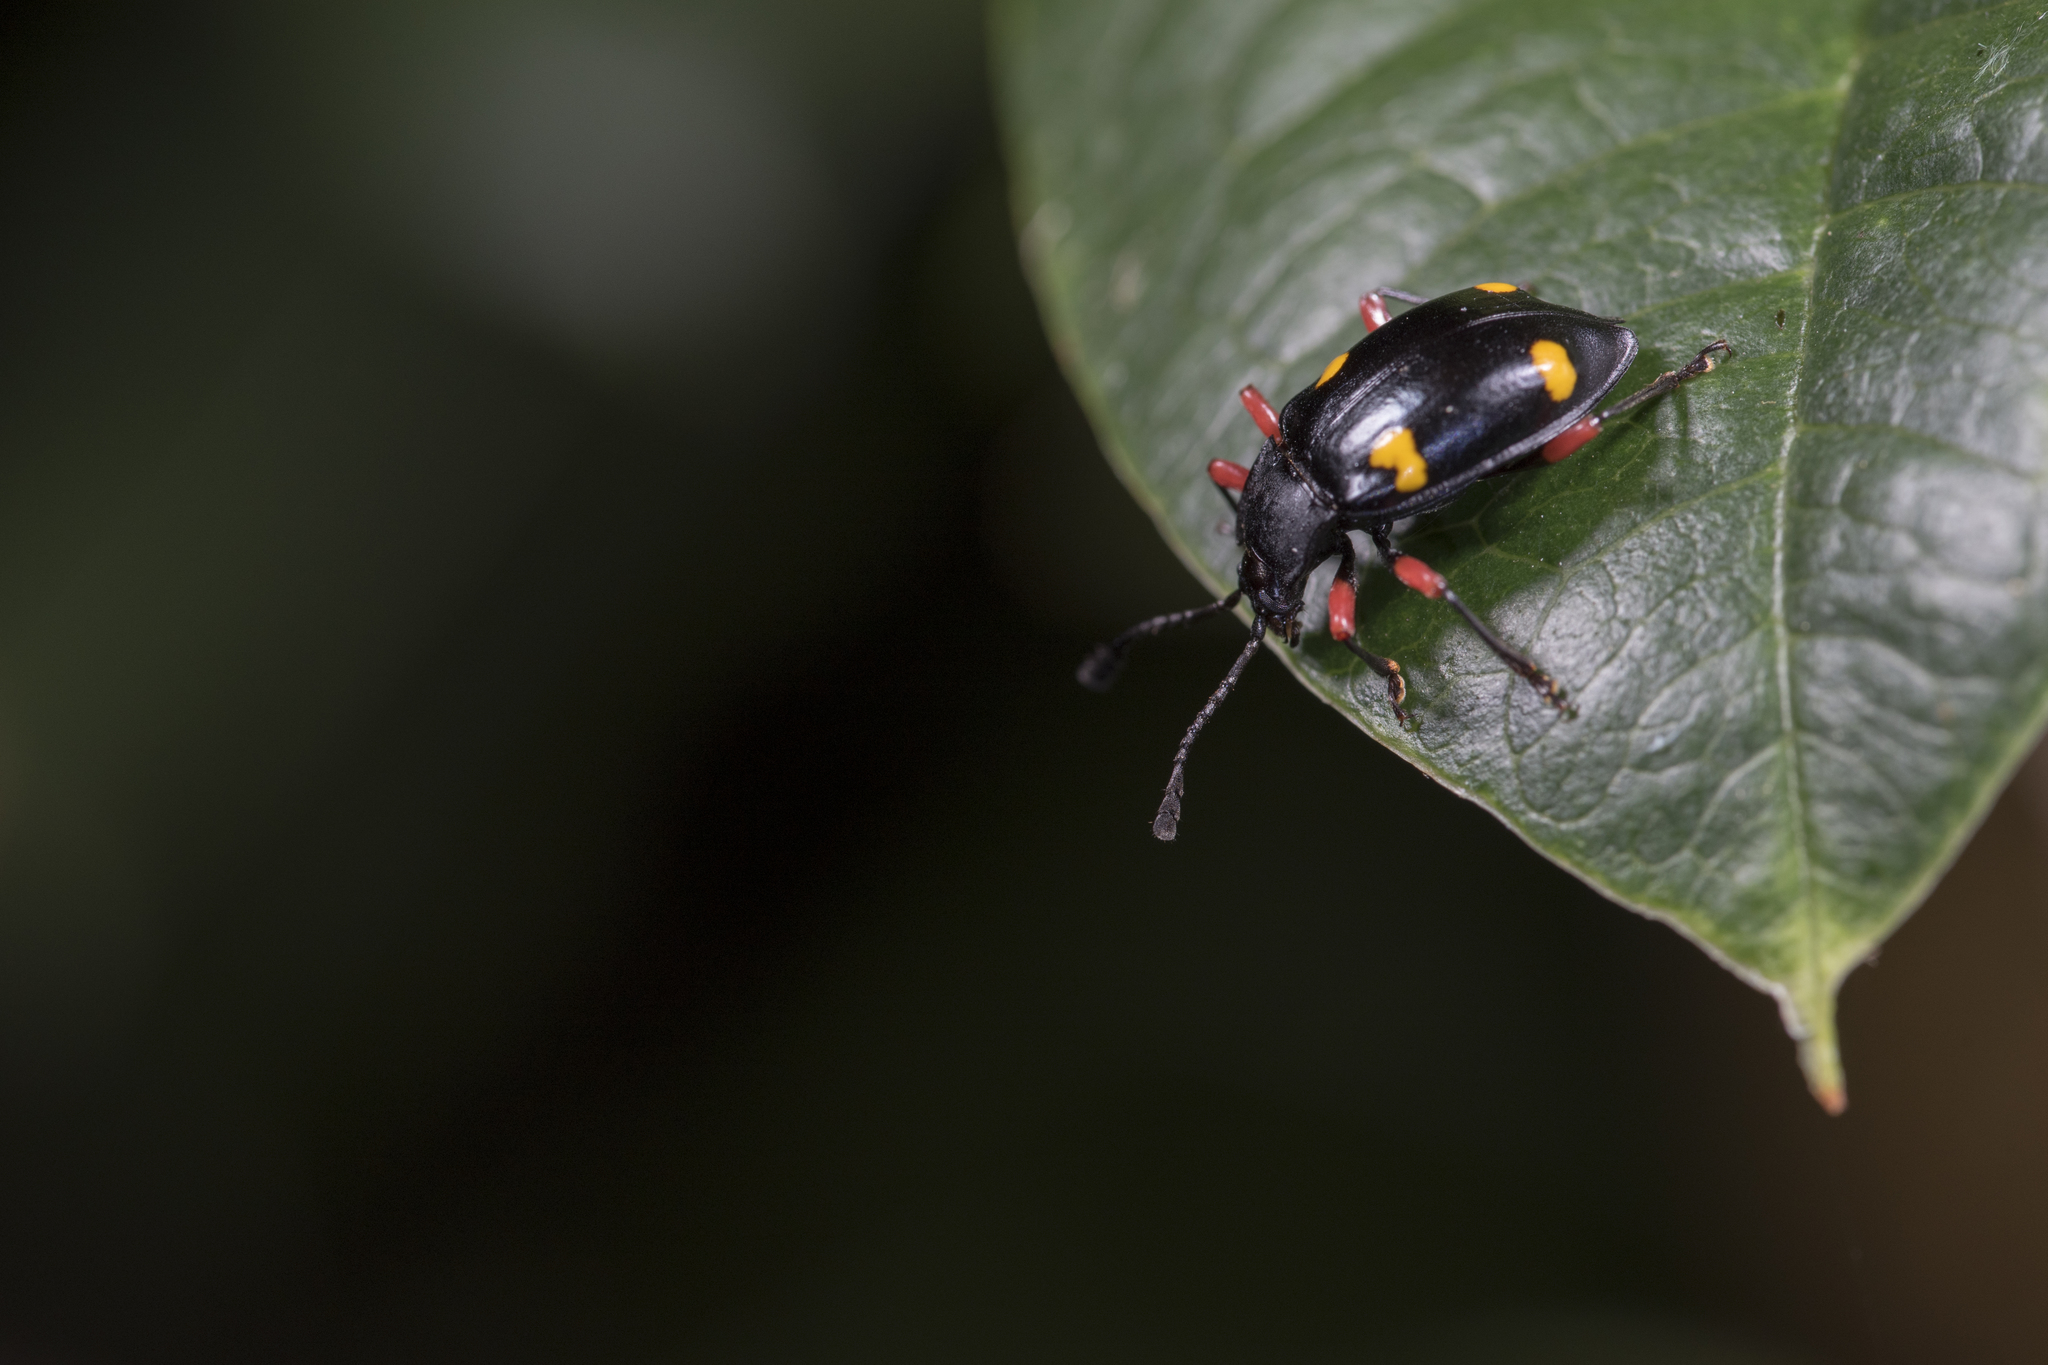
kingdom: Animalia
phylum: Arthropoda
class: Insecta
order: Coleoptera
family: Endomychidae
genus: Eumorphus
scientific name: Eumorphus quadriguttatus
